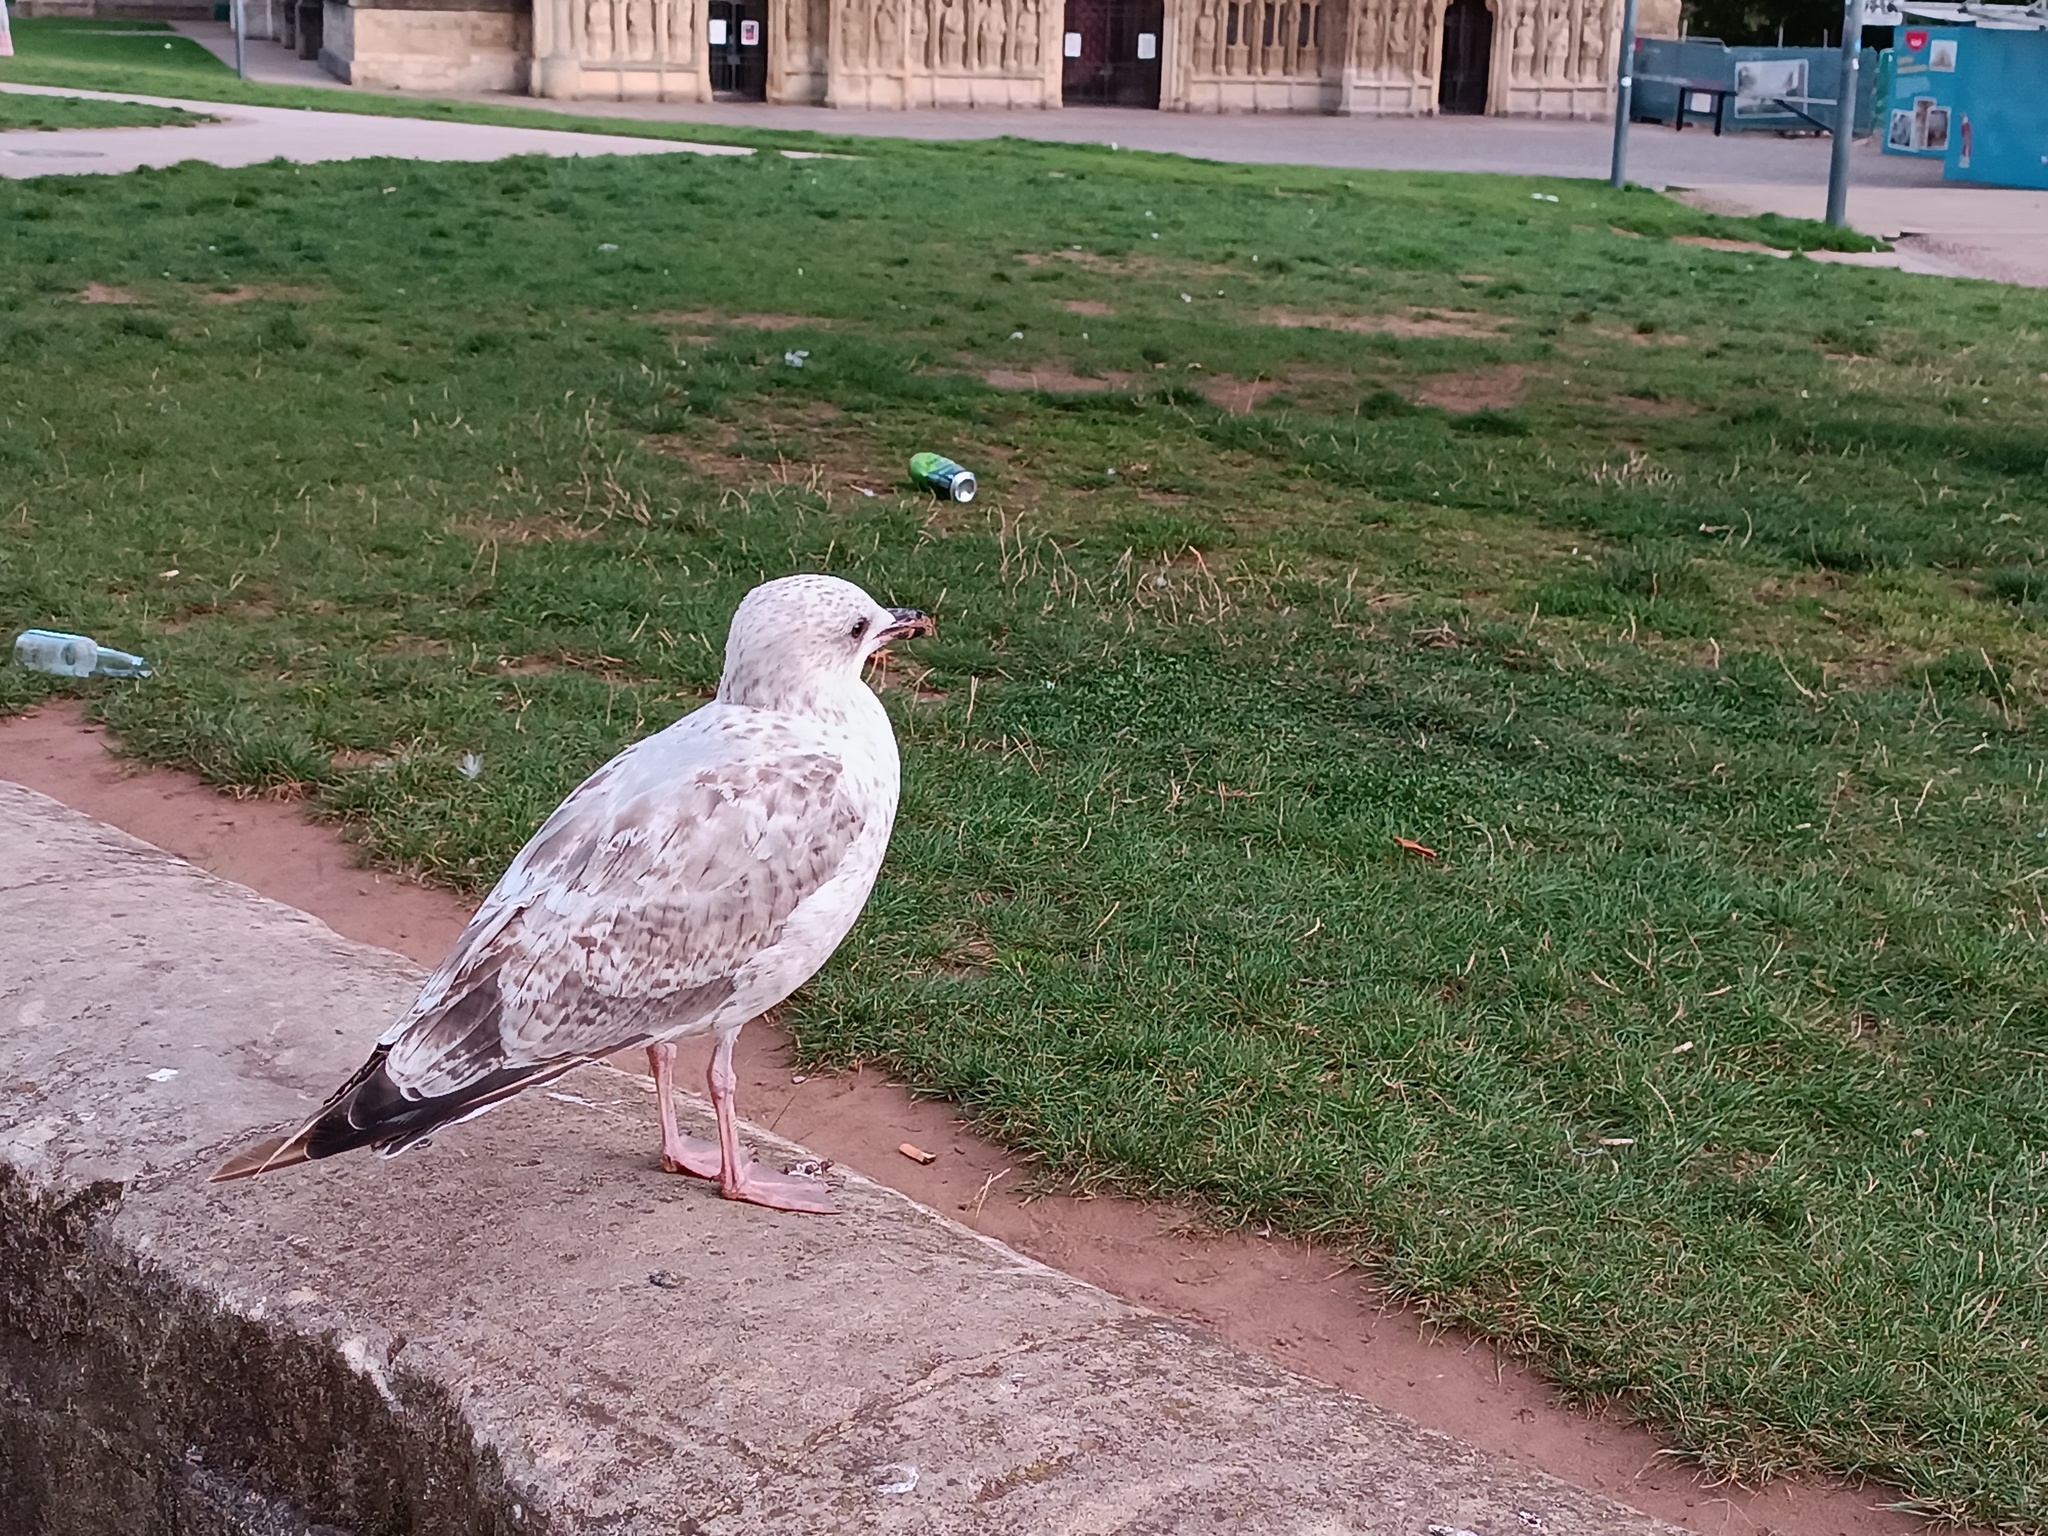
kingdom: Animalia
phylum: Chordata
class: Aves
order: Charadriiformes
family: Laridae
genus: Larus
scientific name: Larus argentatus
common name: Herring gull
